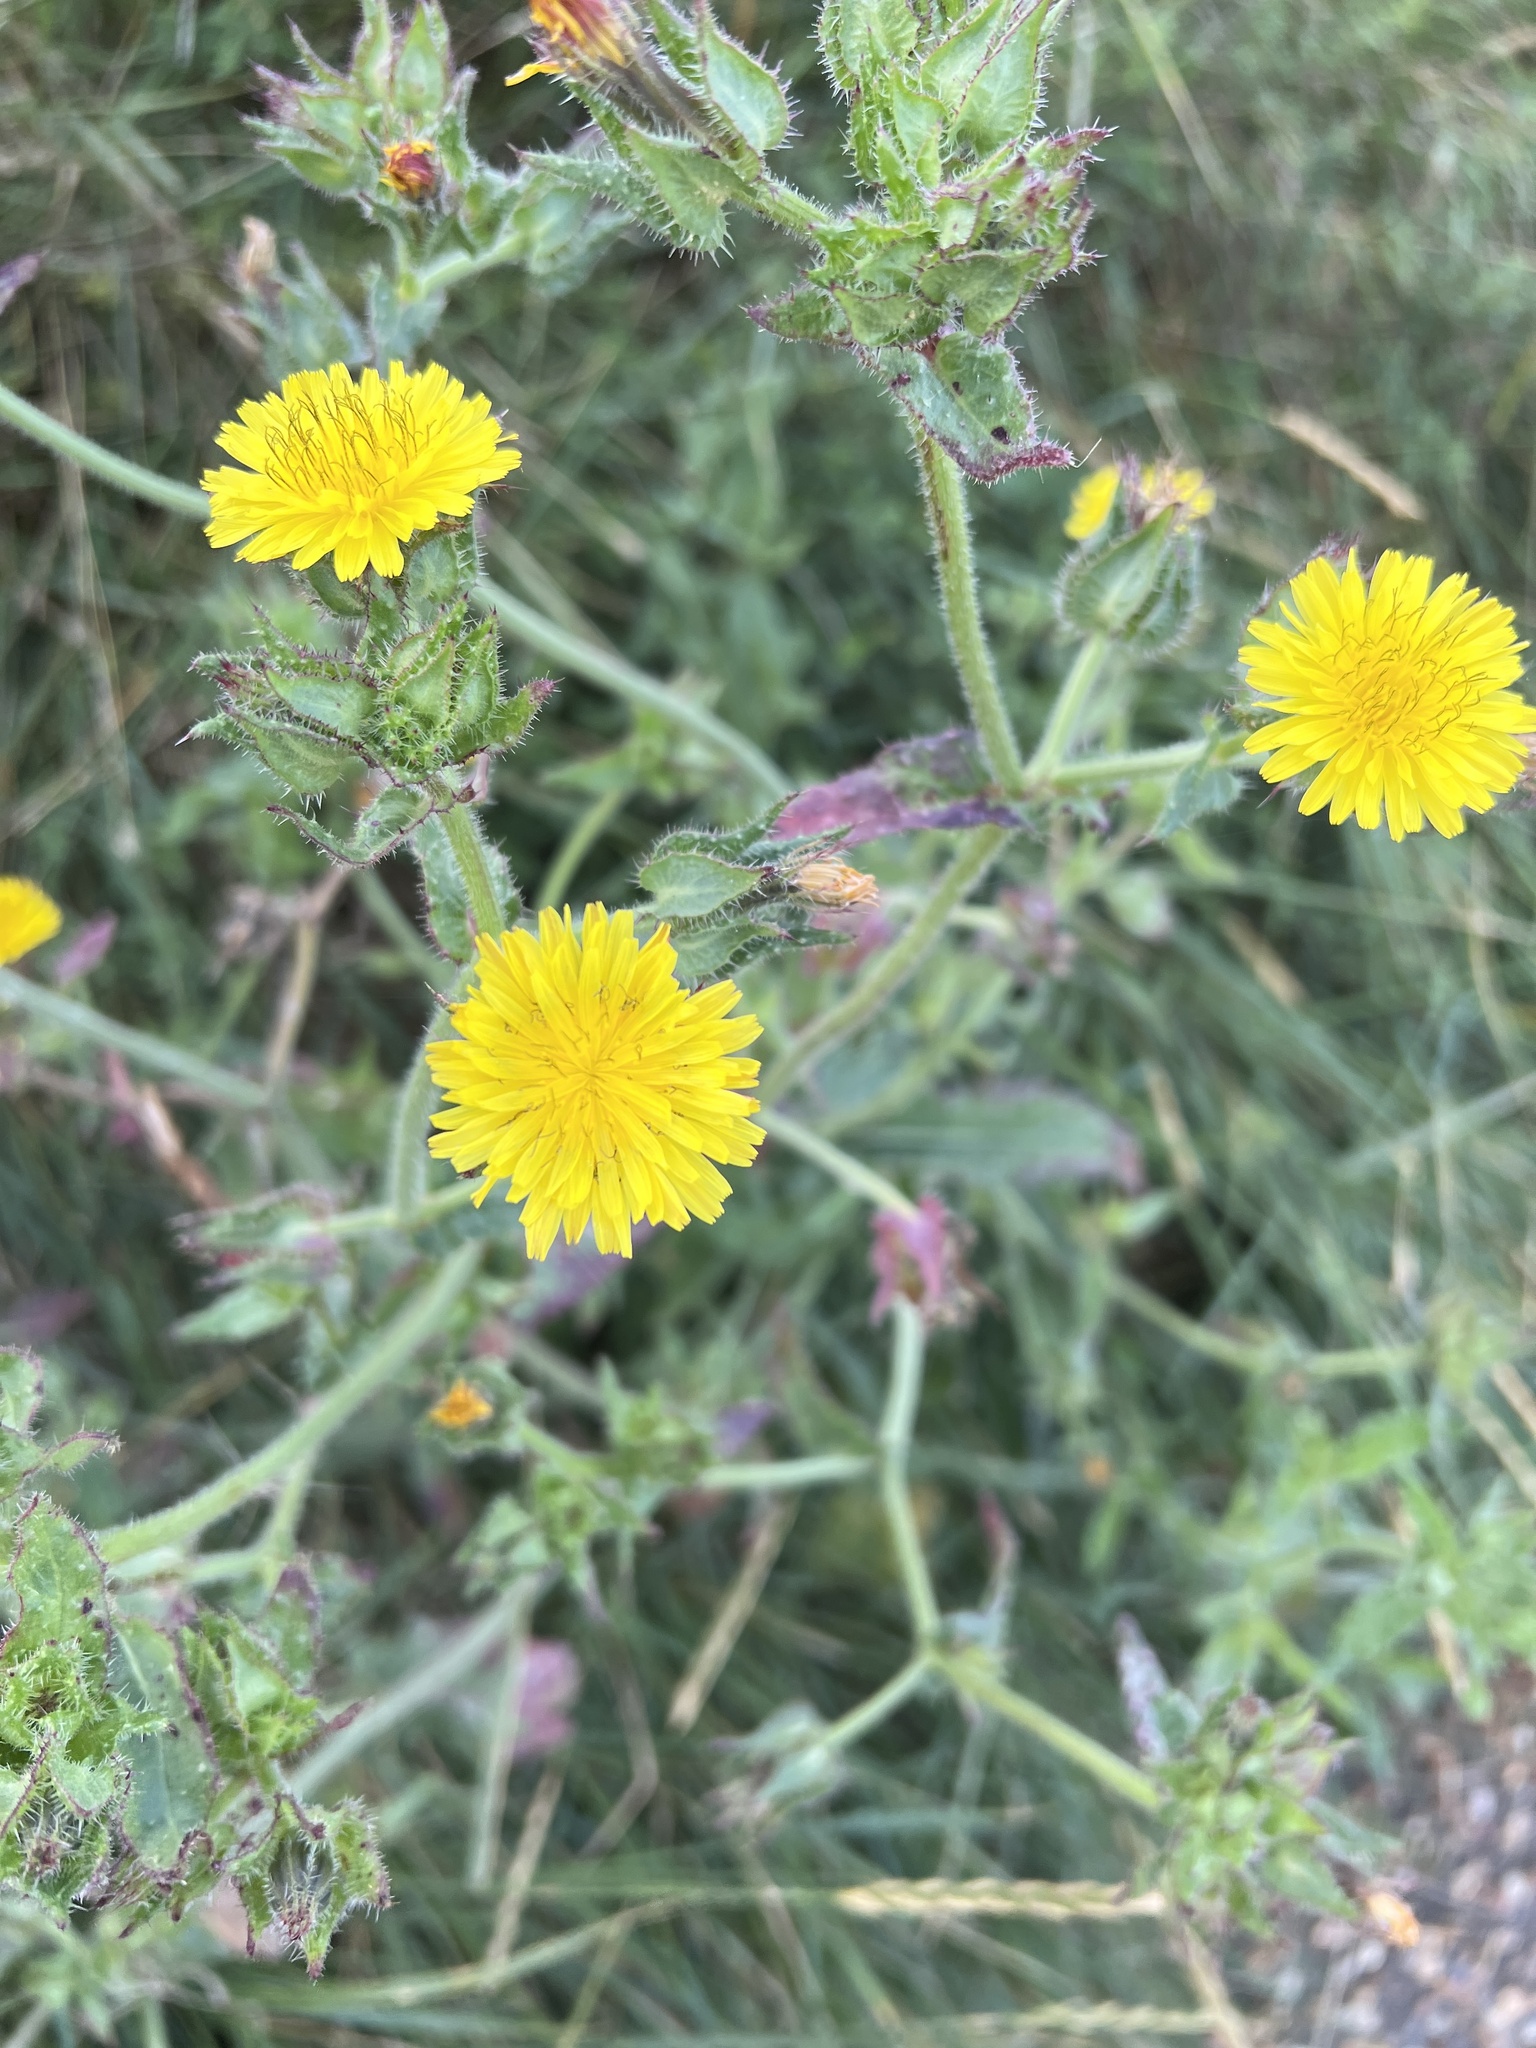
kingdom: Plantae
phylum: Tracheophyta
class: Magnoliopsida
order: Asterales
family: Asteraceae
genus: Helminthotheca
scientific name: Helminthotheca echioides
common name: Ox-tongue
